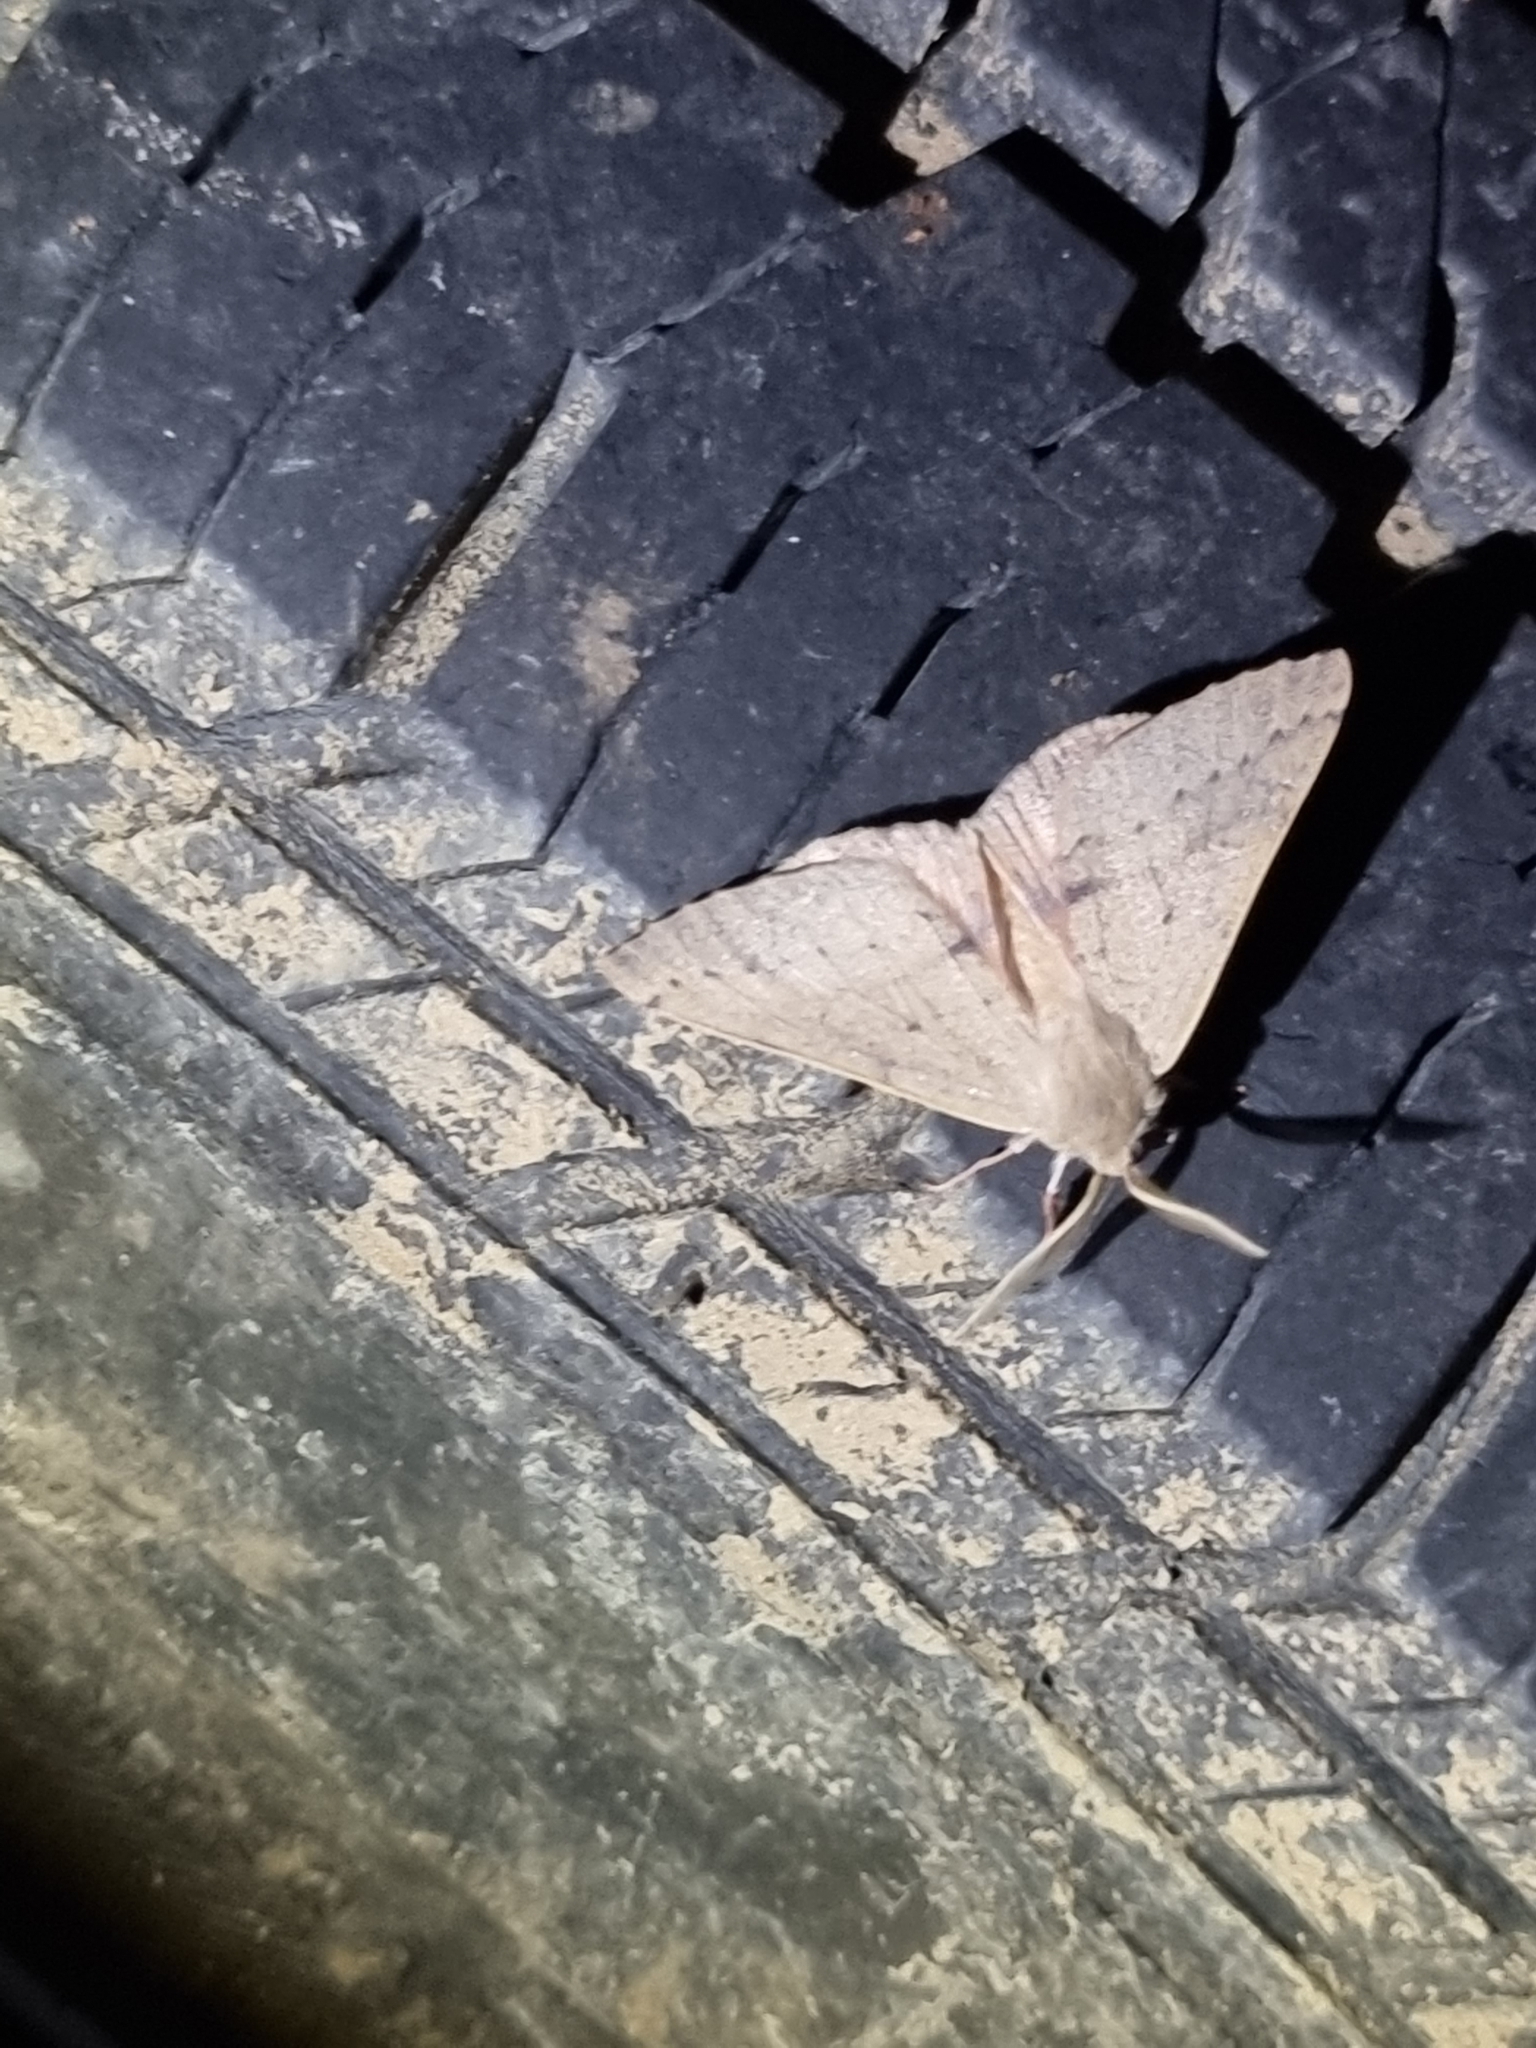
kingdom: Animalia
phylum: Arthropoda
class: Insecta
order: Lepidoptera
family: Geometridae
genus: Arhodia
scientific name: Arhodia lasiocamparia
